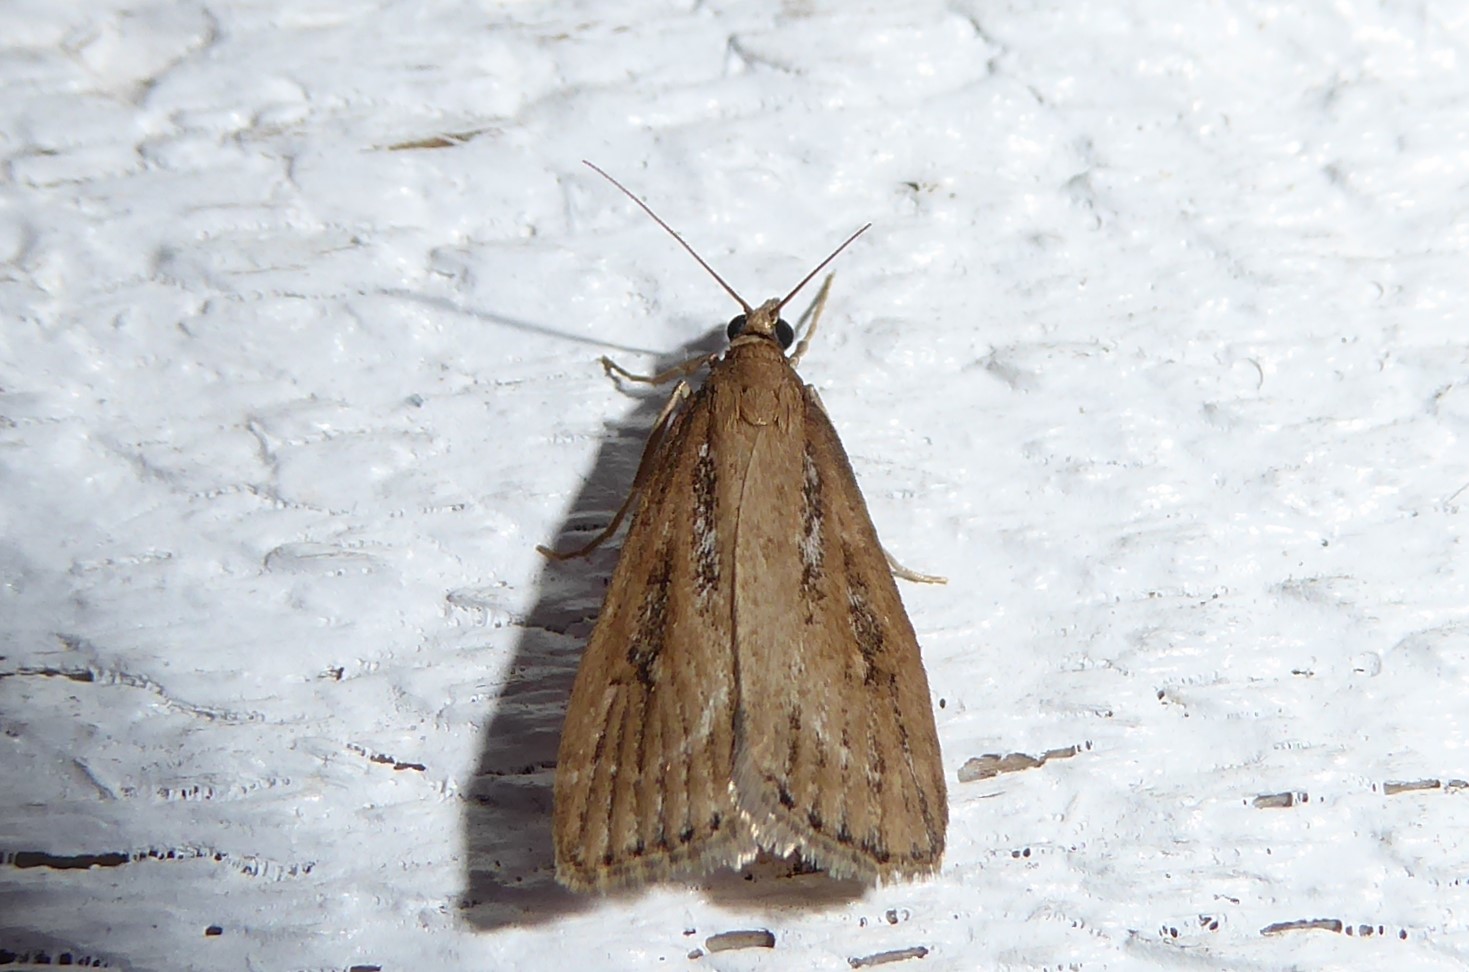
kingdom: Animalia
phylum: Arthropoda
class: Insecta
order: Lepidoptera
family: Crambidae
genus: Eudonia
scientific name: Eudonia octophora
